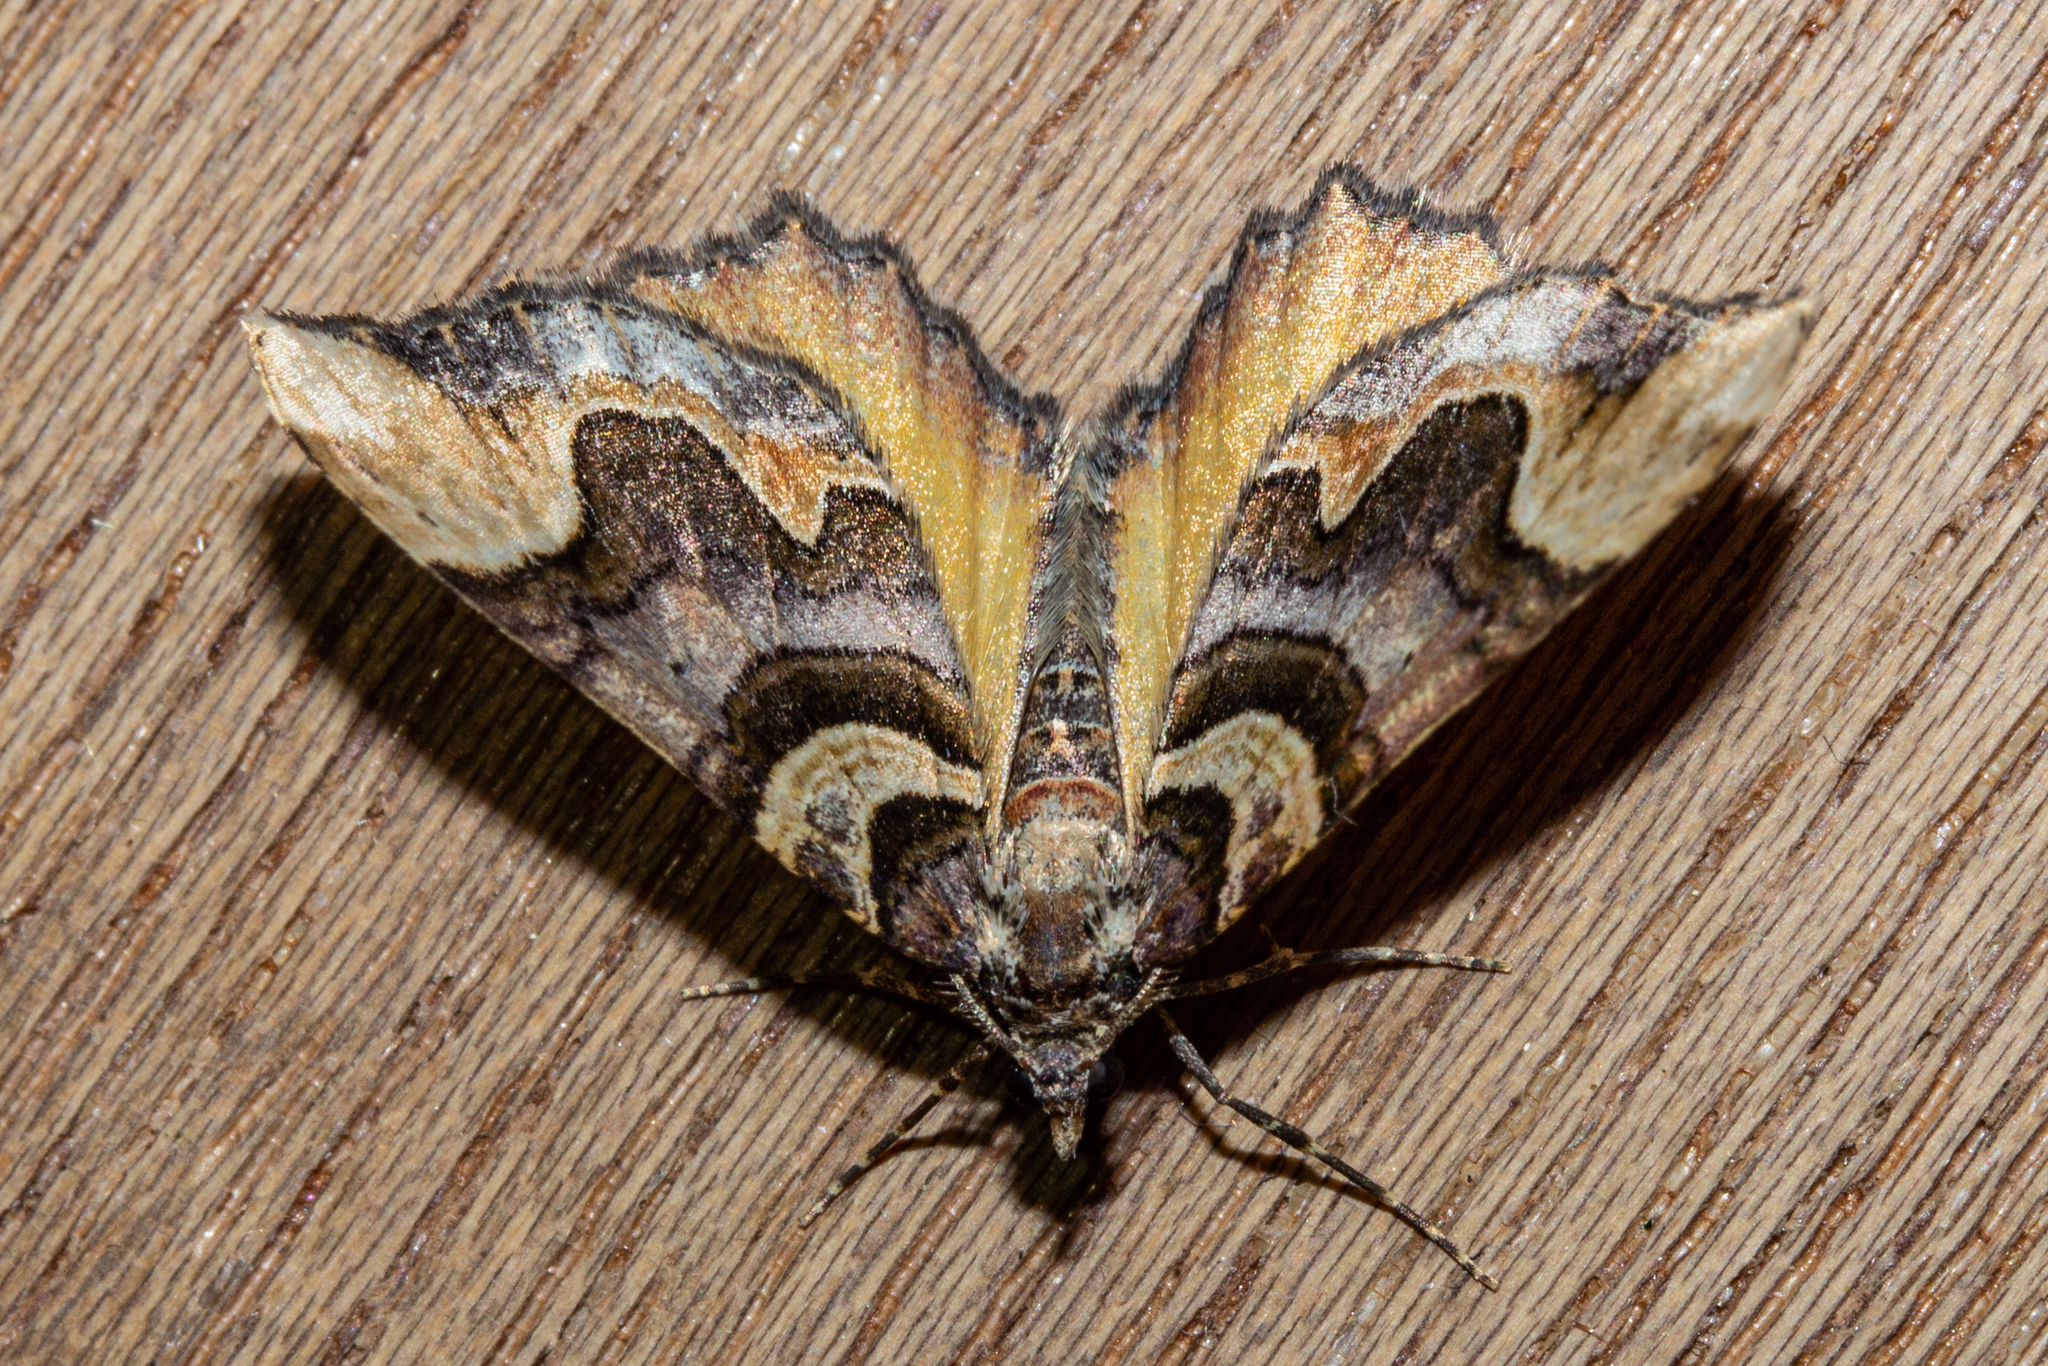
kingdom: Animalia
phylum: Arthropoda
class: Insecta
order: Lepidoptera
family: Geometridae
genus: Asaphodes
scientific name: Asaphodes chlamydota
